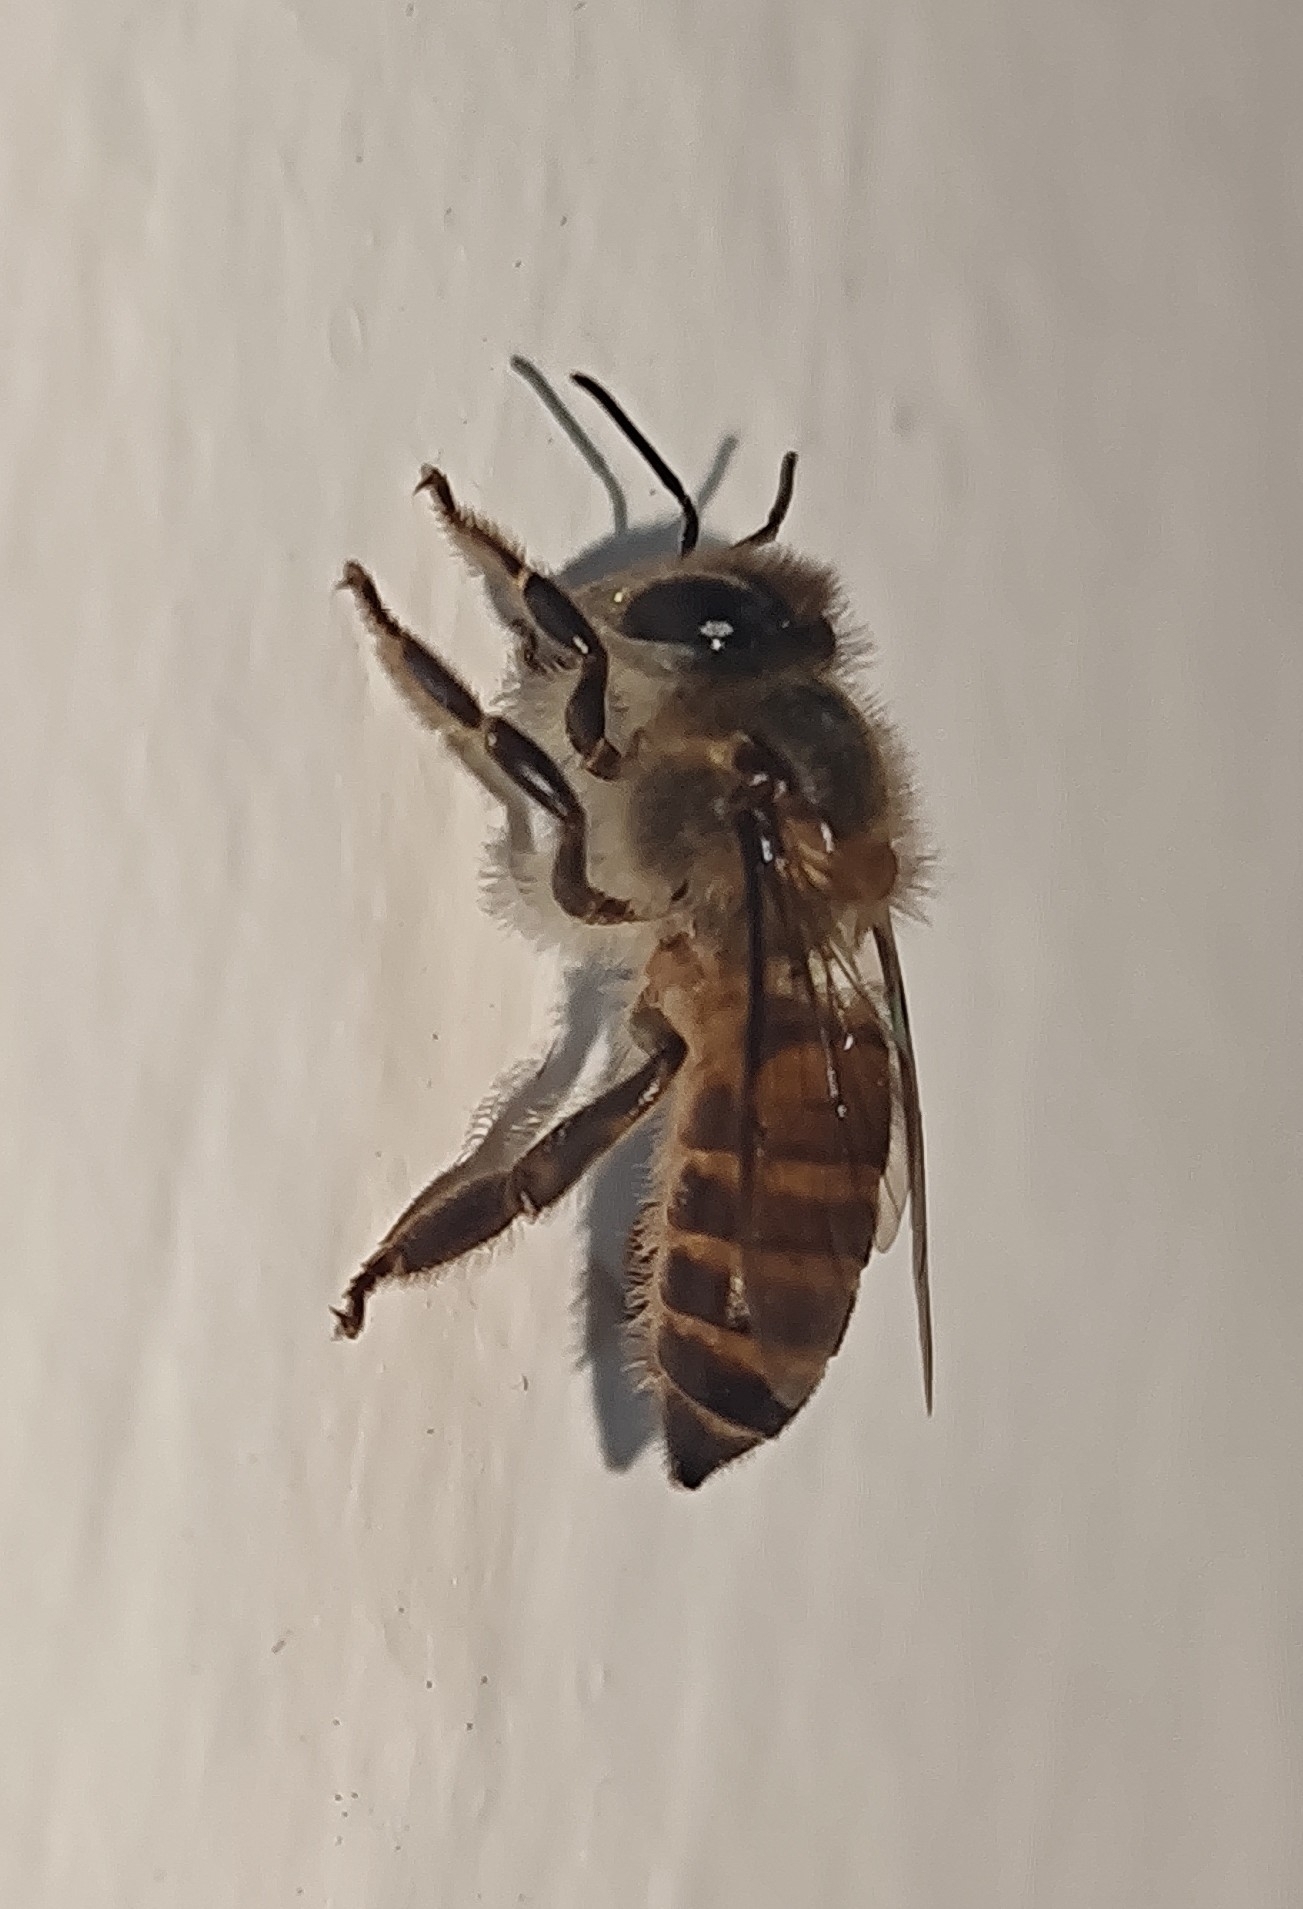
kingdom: Animalia
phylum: Arthropoda
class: Insecta
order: Hymenoptera
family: Apidae
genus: Apis
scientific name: Apis cerana
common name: Honey bee
